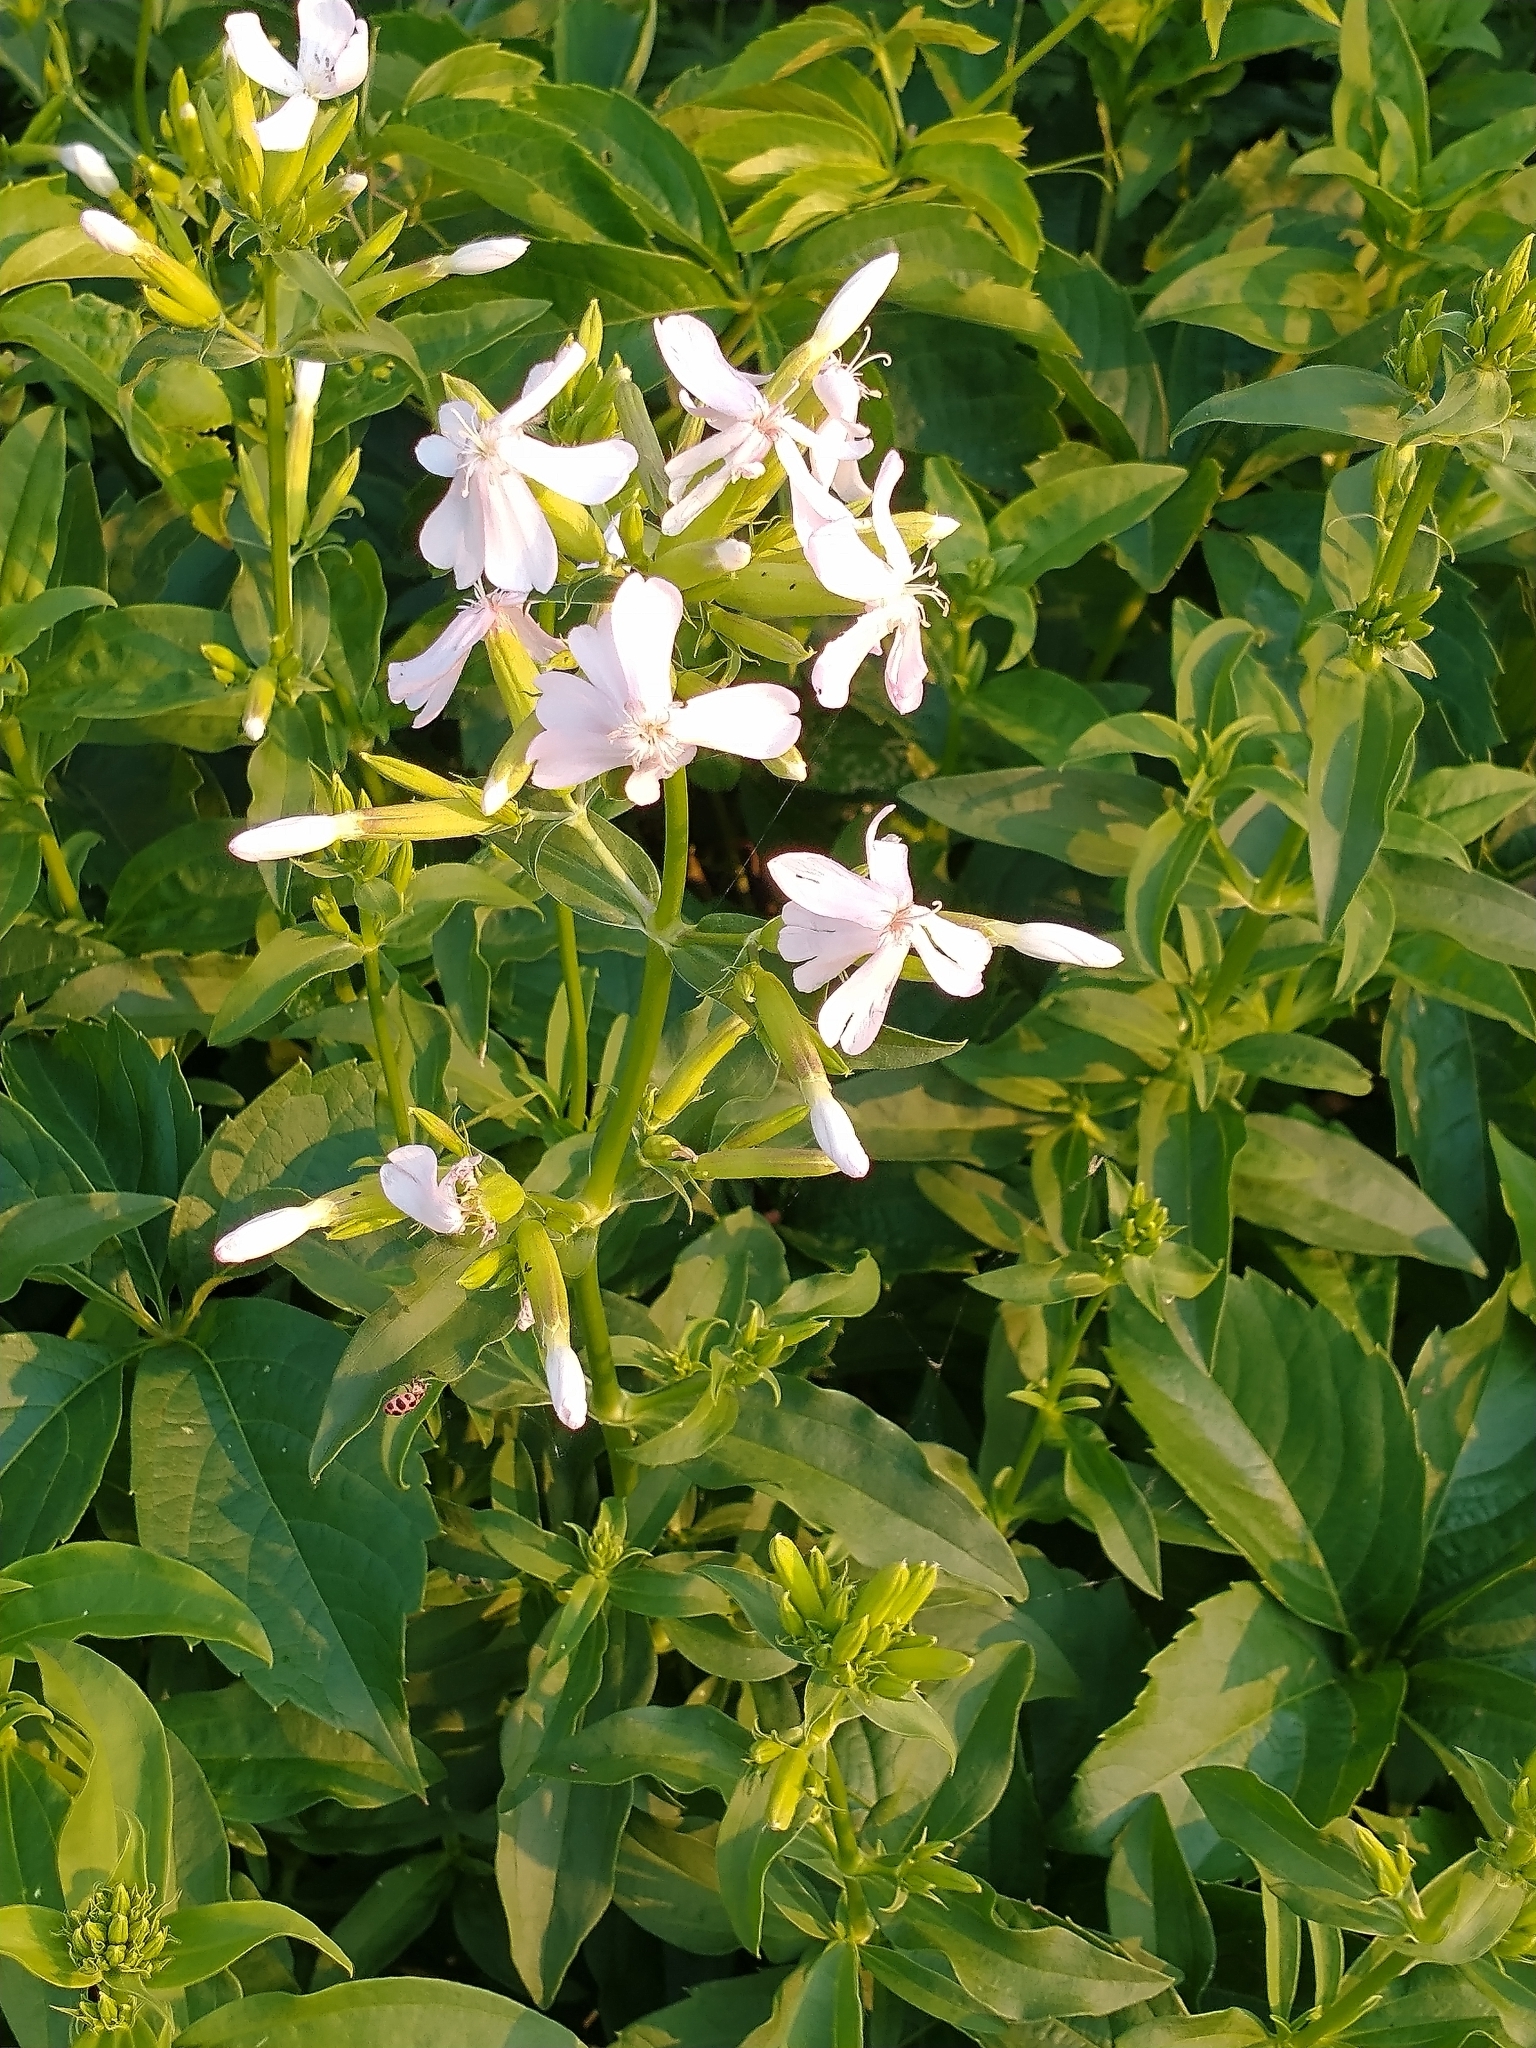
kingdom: Plantae
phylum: Tracheophyta
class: Magnoliopsida
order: Caryophyllales
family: Caryophyllaceae
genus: Saponaria
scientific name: Saponaria officinalis
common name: Soapwort
